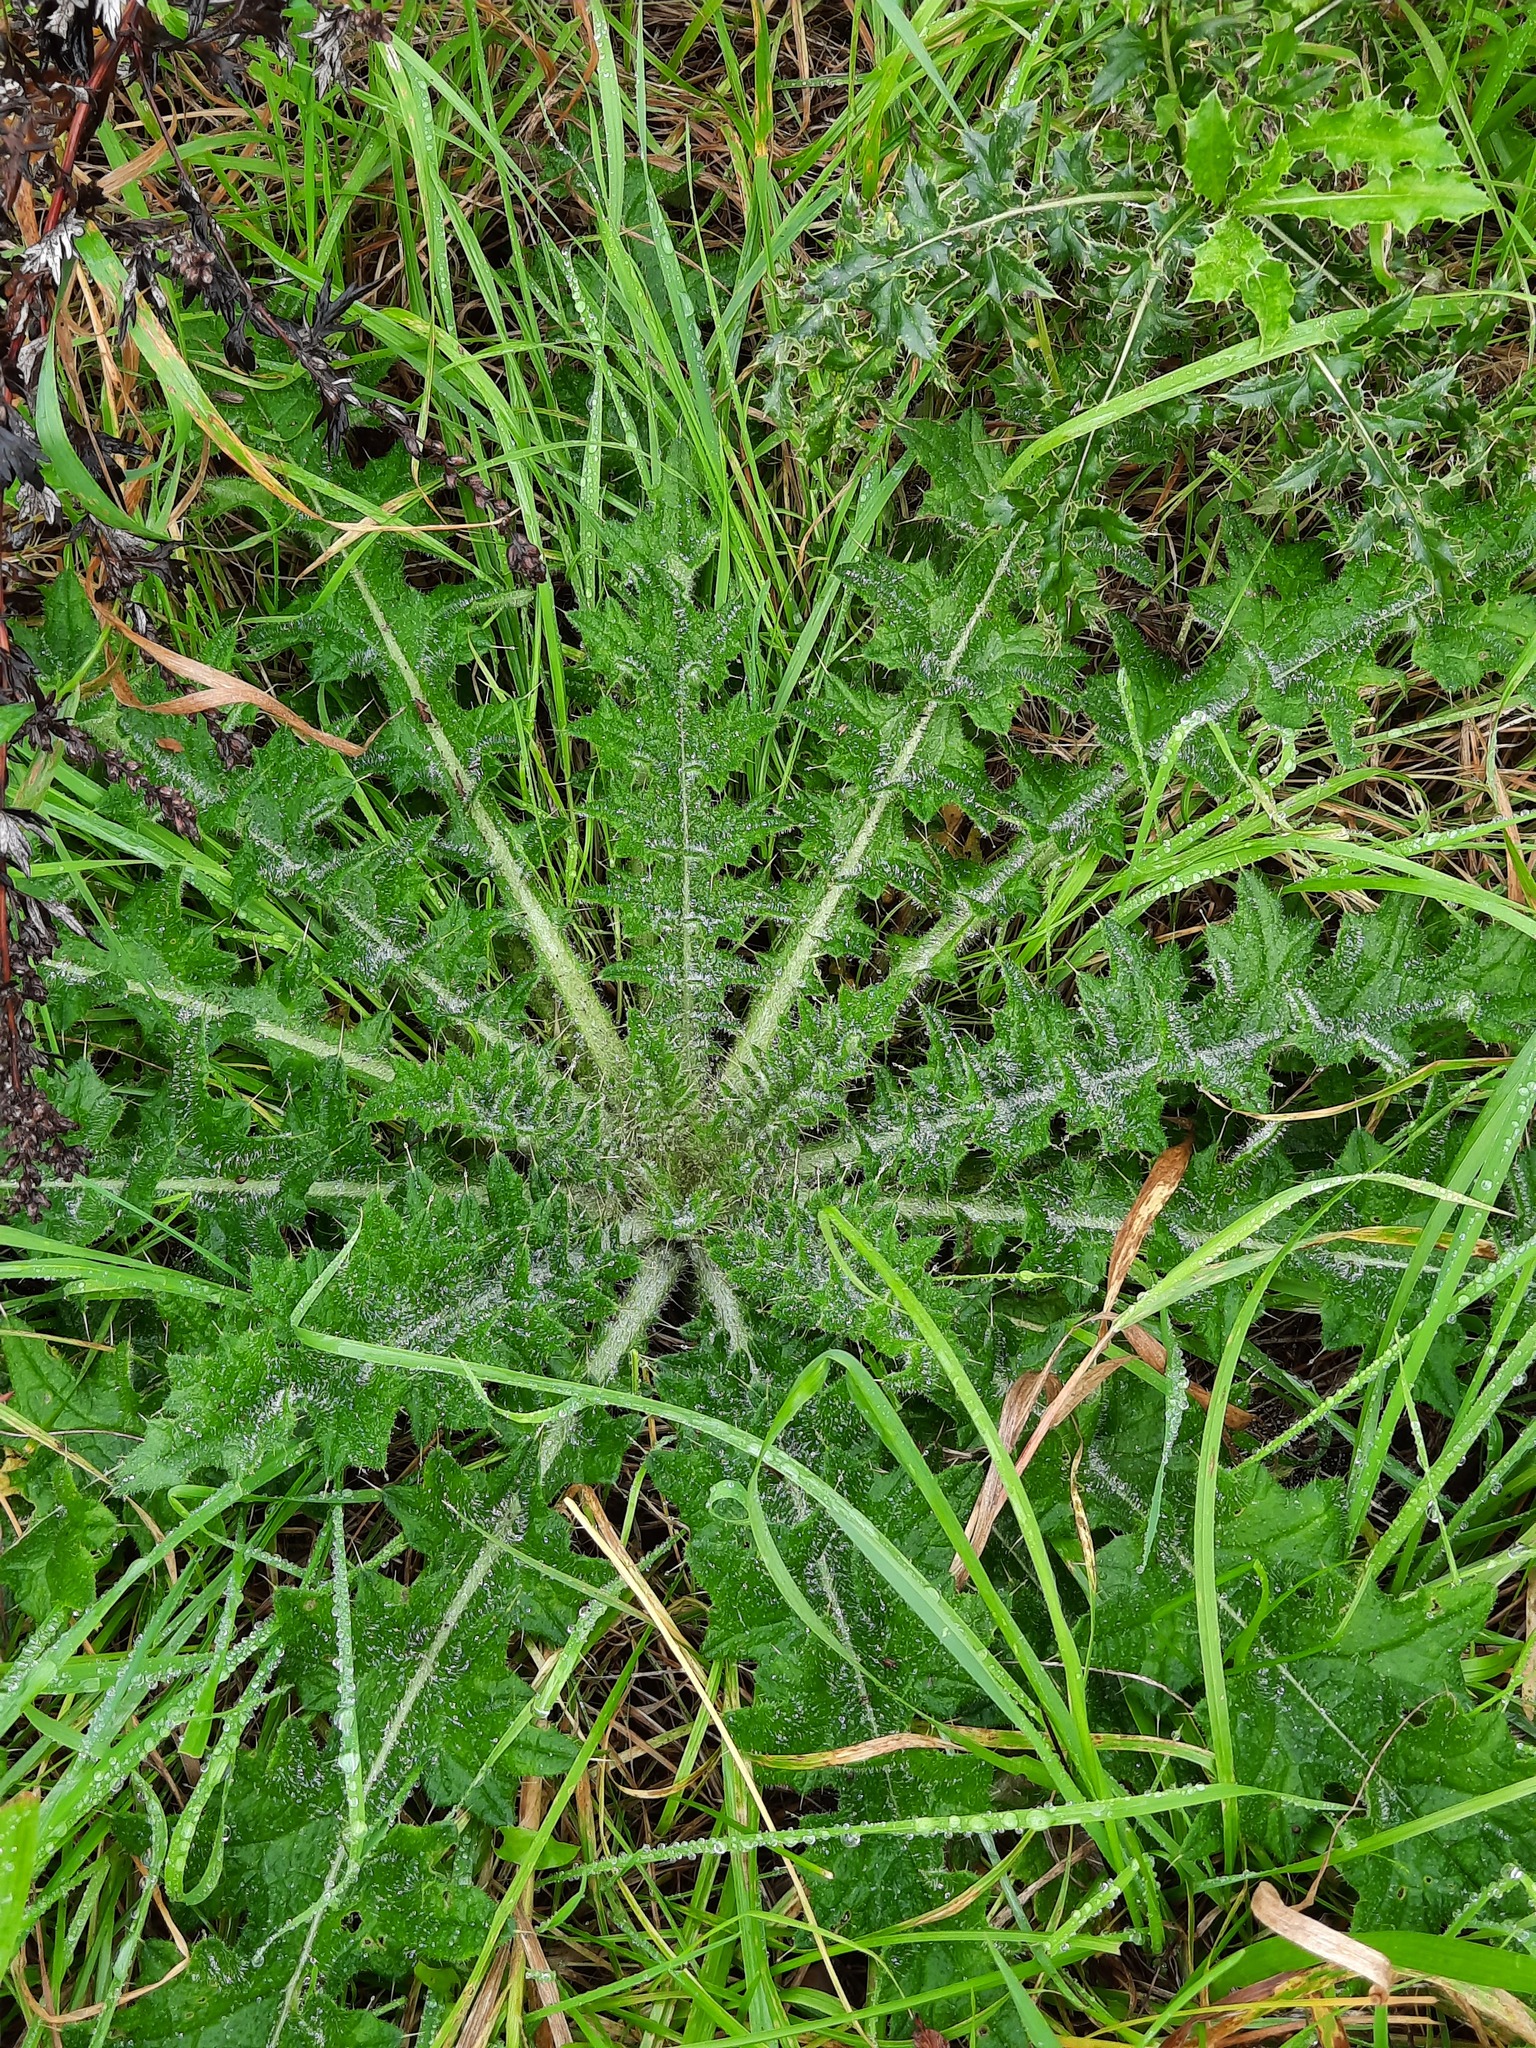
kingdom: Plantae
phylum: Tracheophyta
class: Magnoliopsida
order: Asterales
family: Asteraceae
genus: Cirsium
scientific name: Cirsium vulgare
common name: Bull thistle
